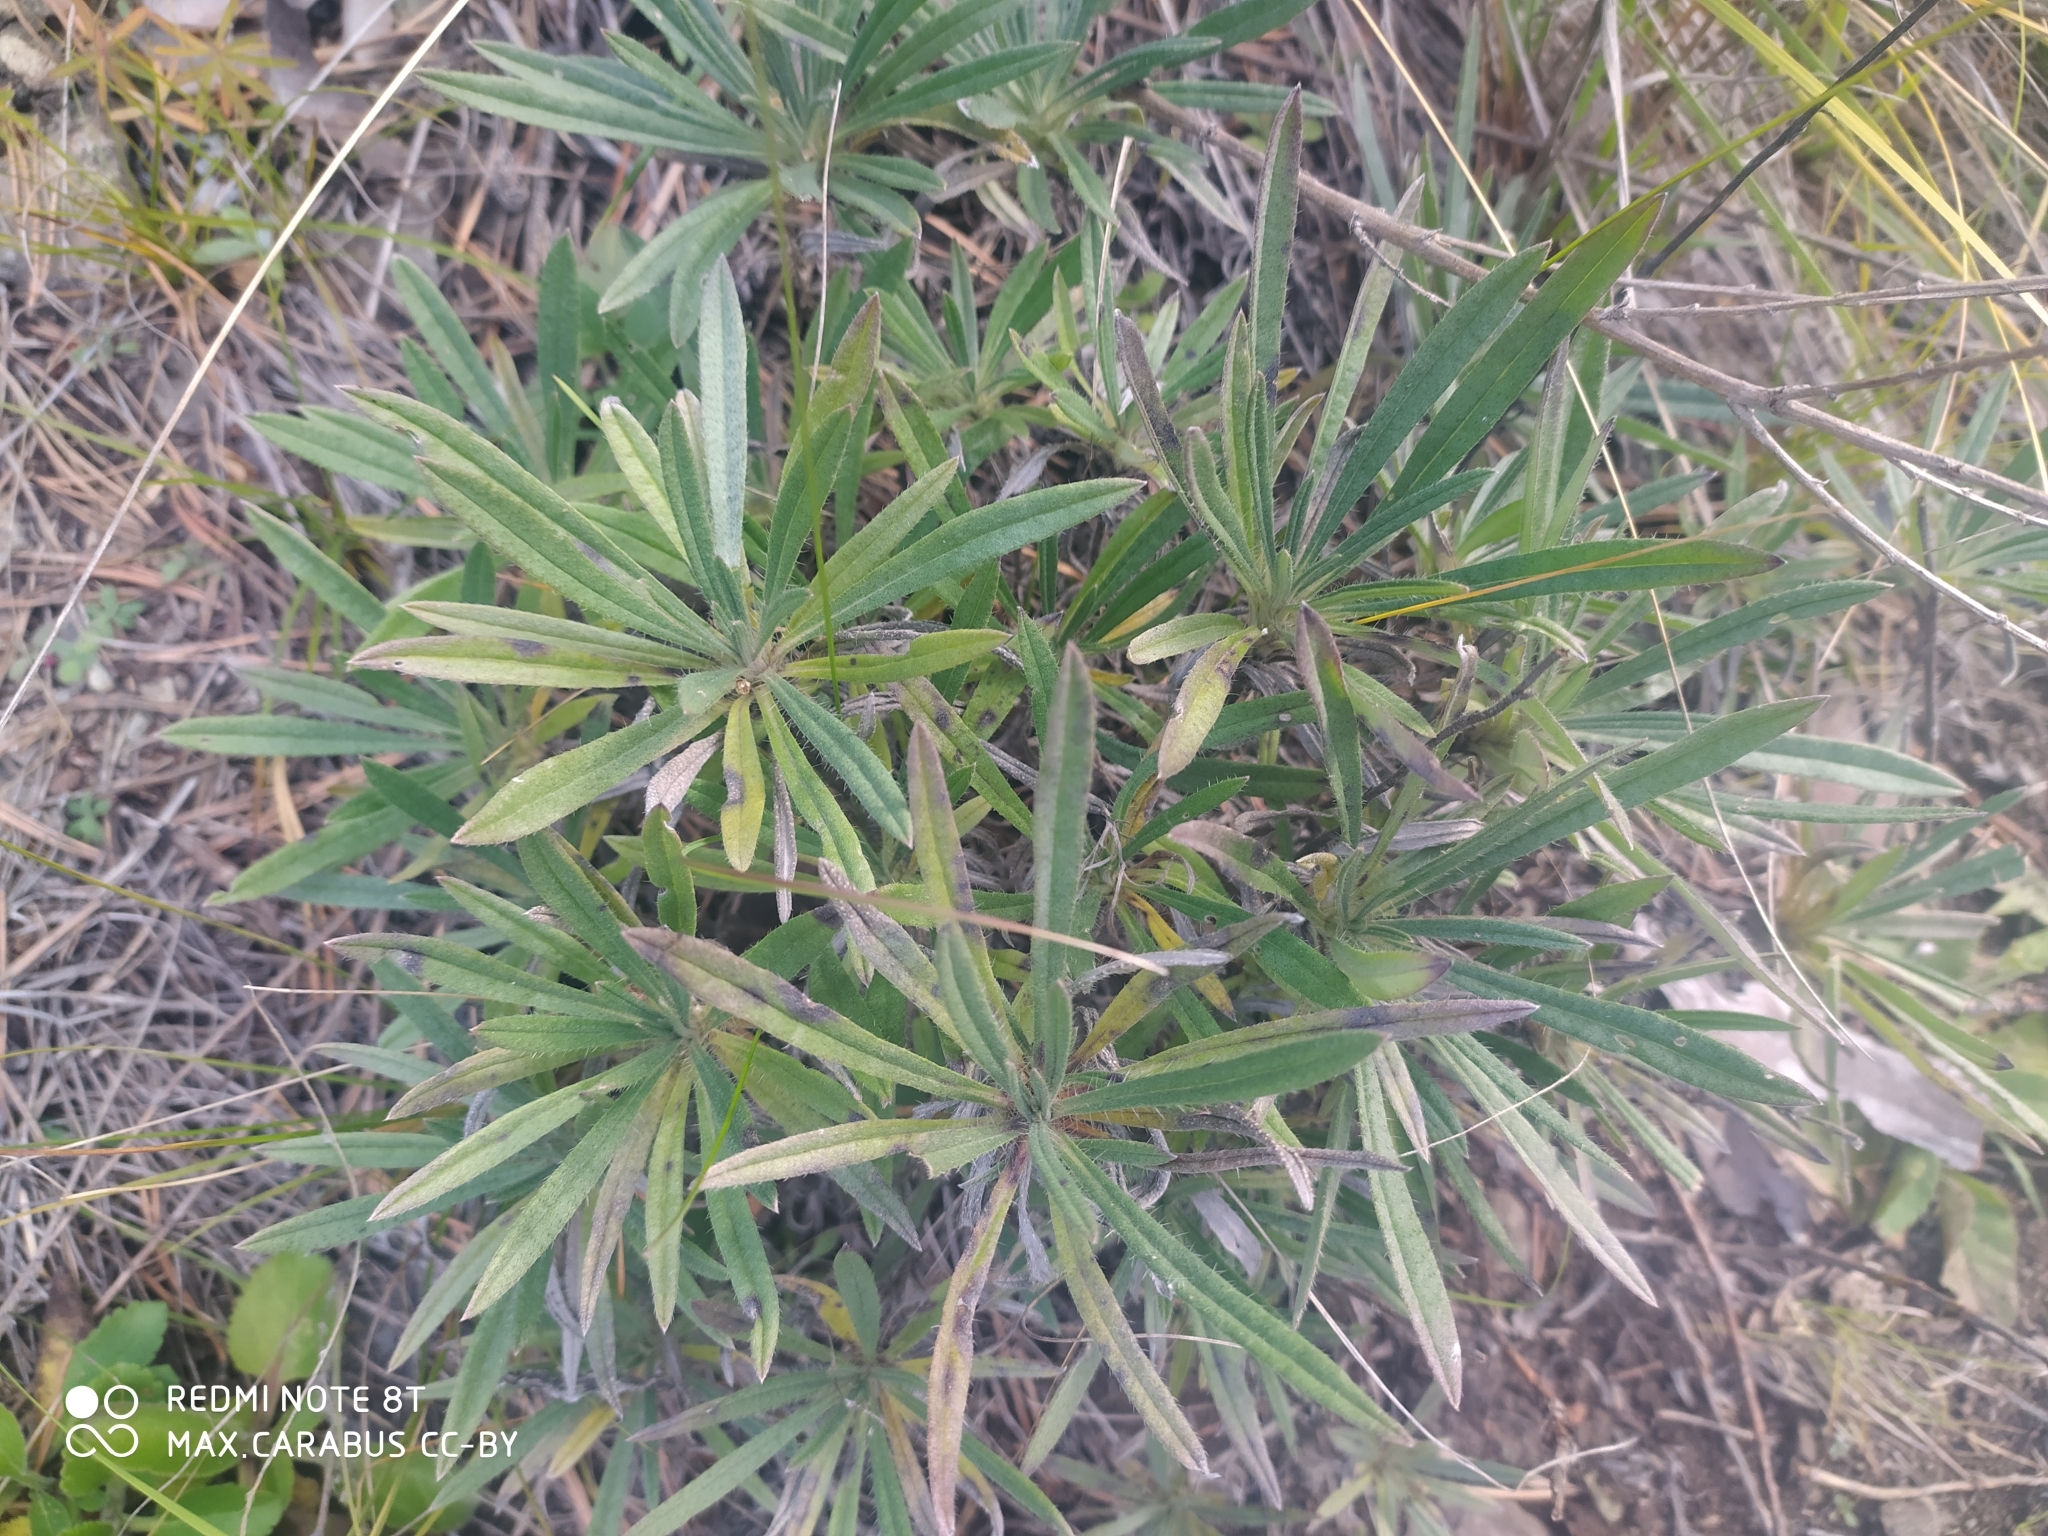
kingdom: Plantae
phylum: Tracheophyta
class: Magnoliopsida
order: Boraginales
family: Boraginaceae
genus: Onosma
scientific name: Onosma simplicissima
